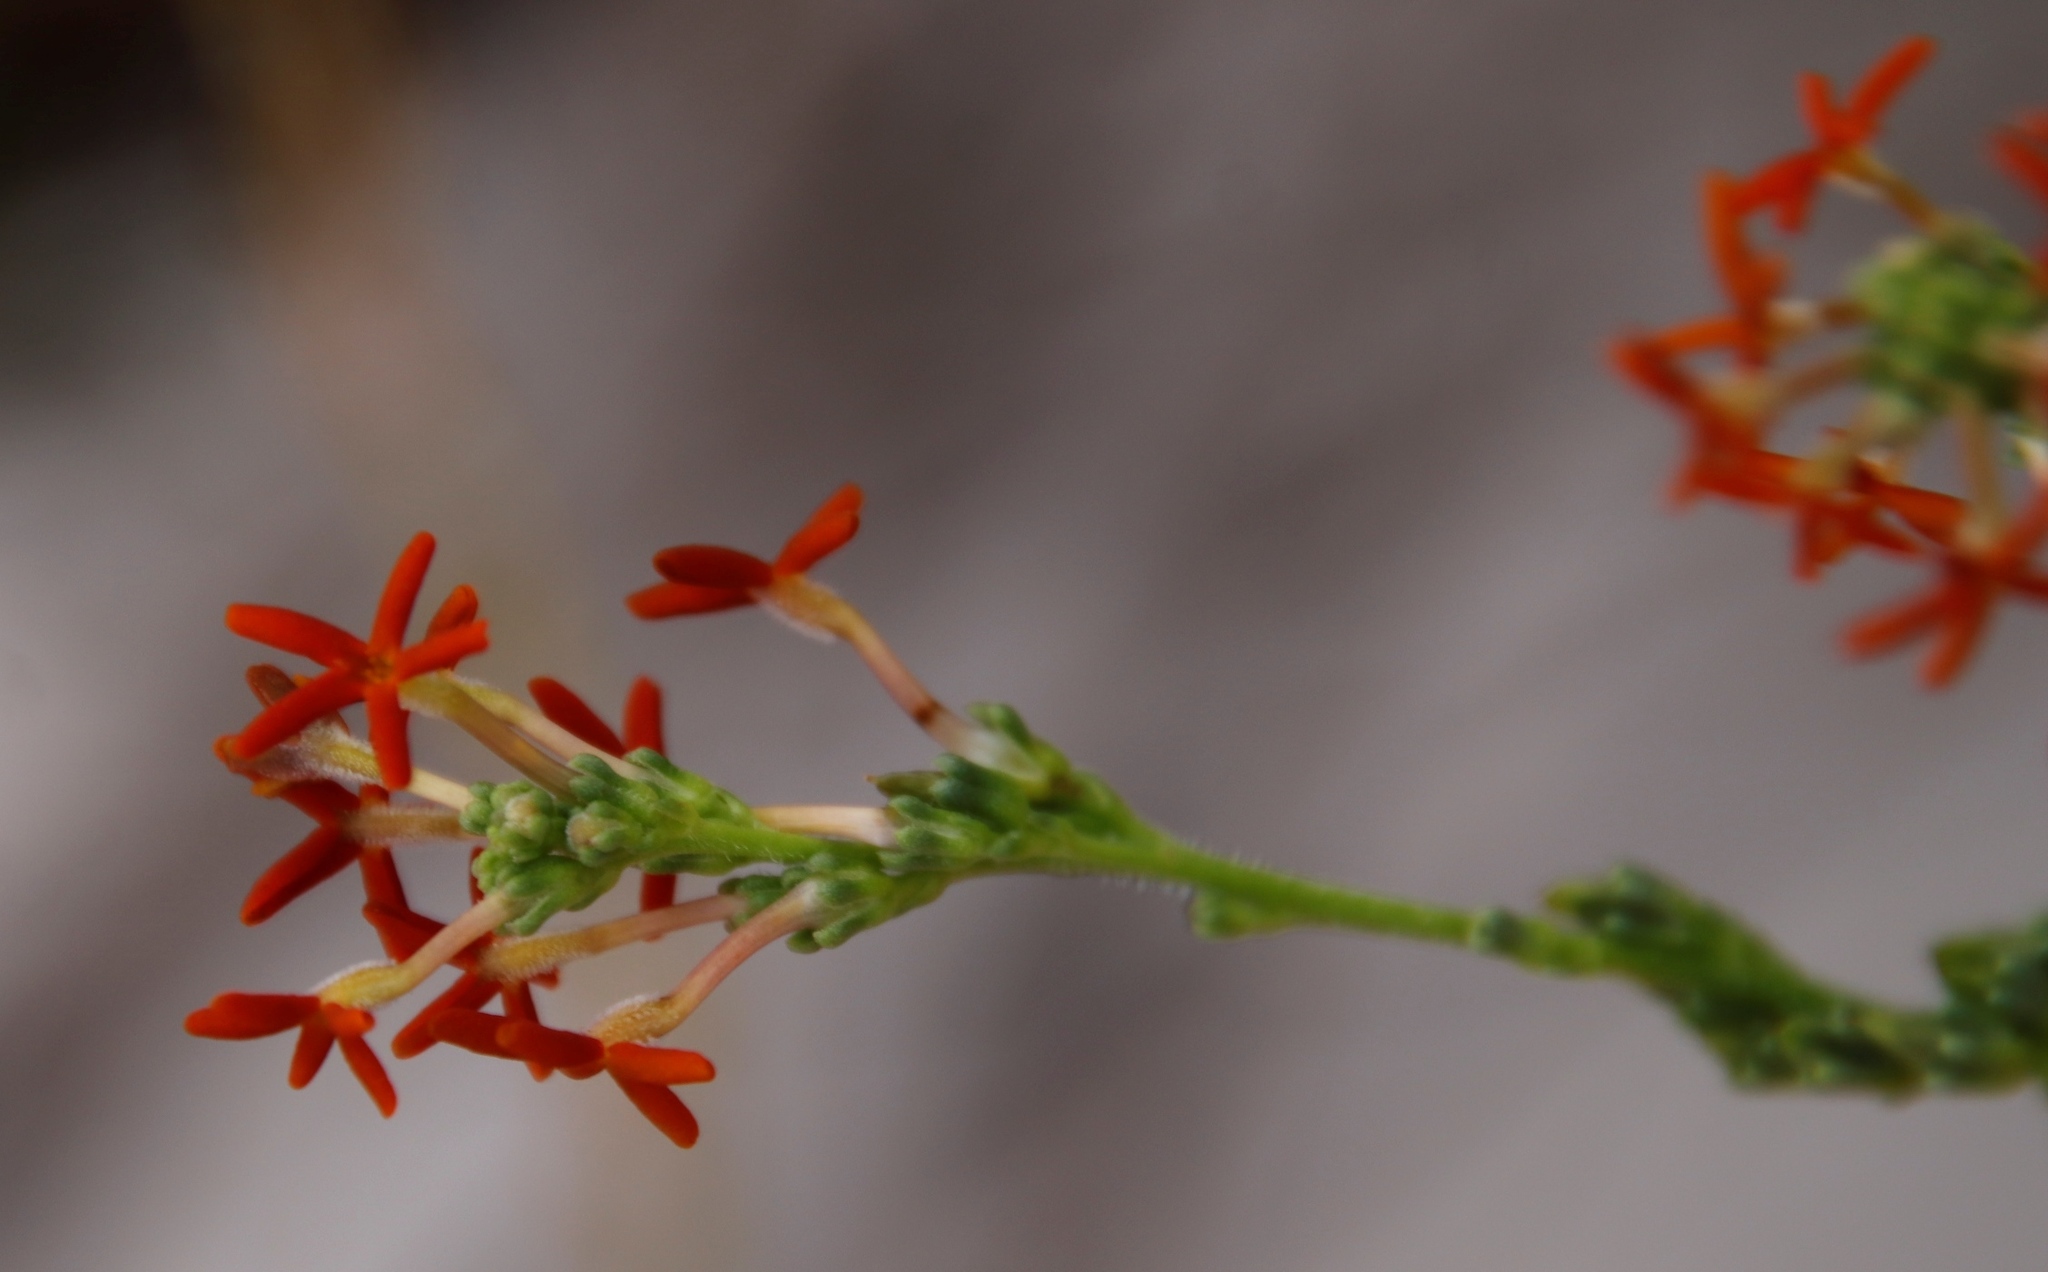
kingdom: Plantae
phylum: Tracheophyta
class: Magnoliopsida
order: Lamiales
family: Scrophulariaceae
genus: Manulea
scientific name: Manulea rubra
